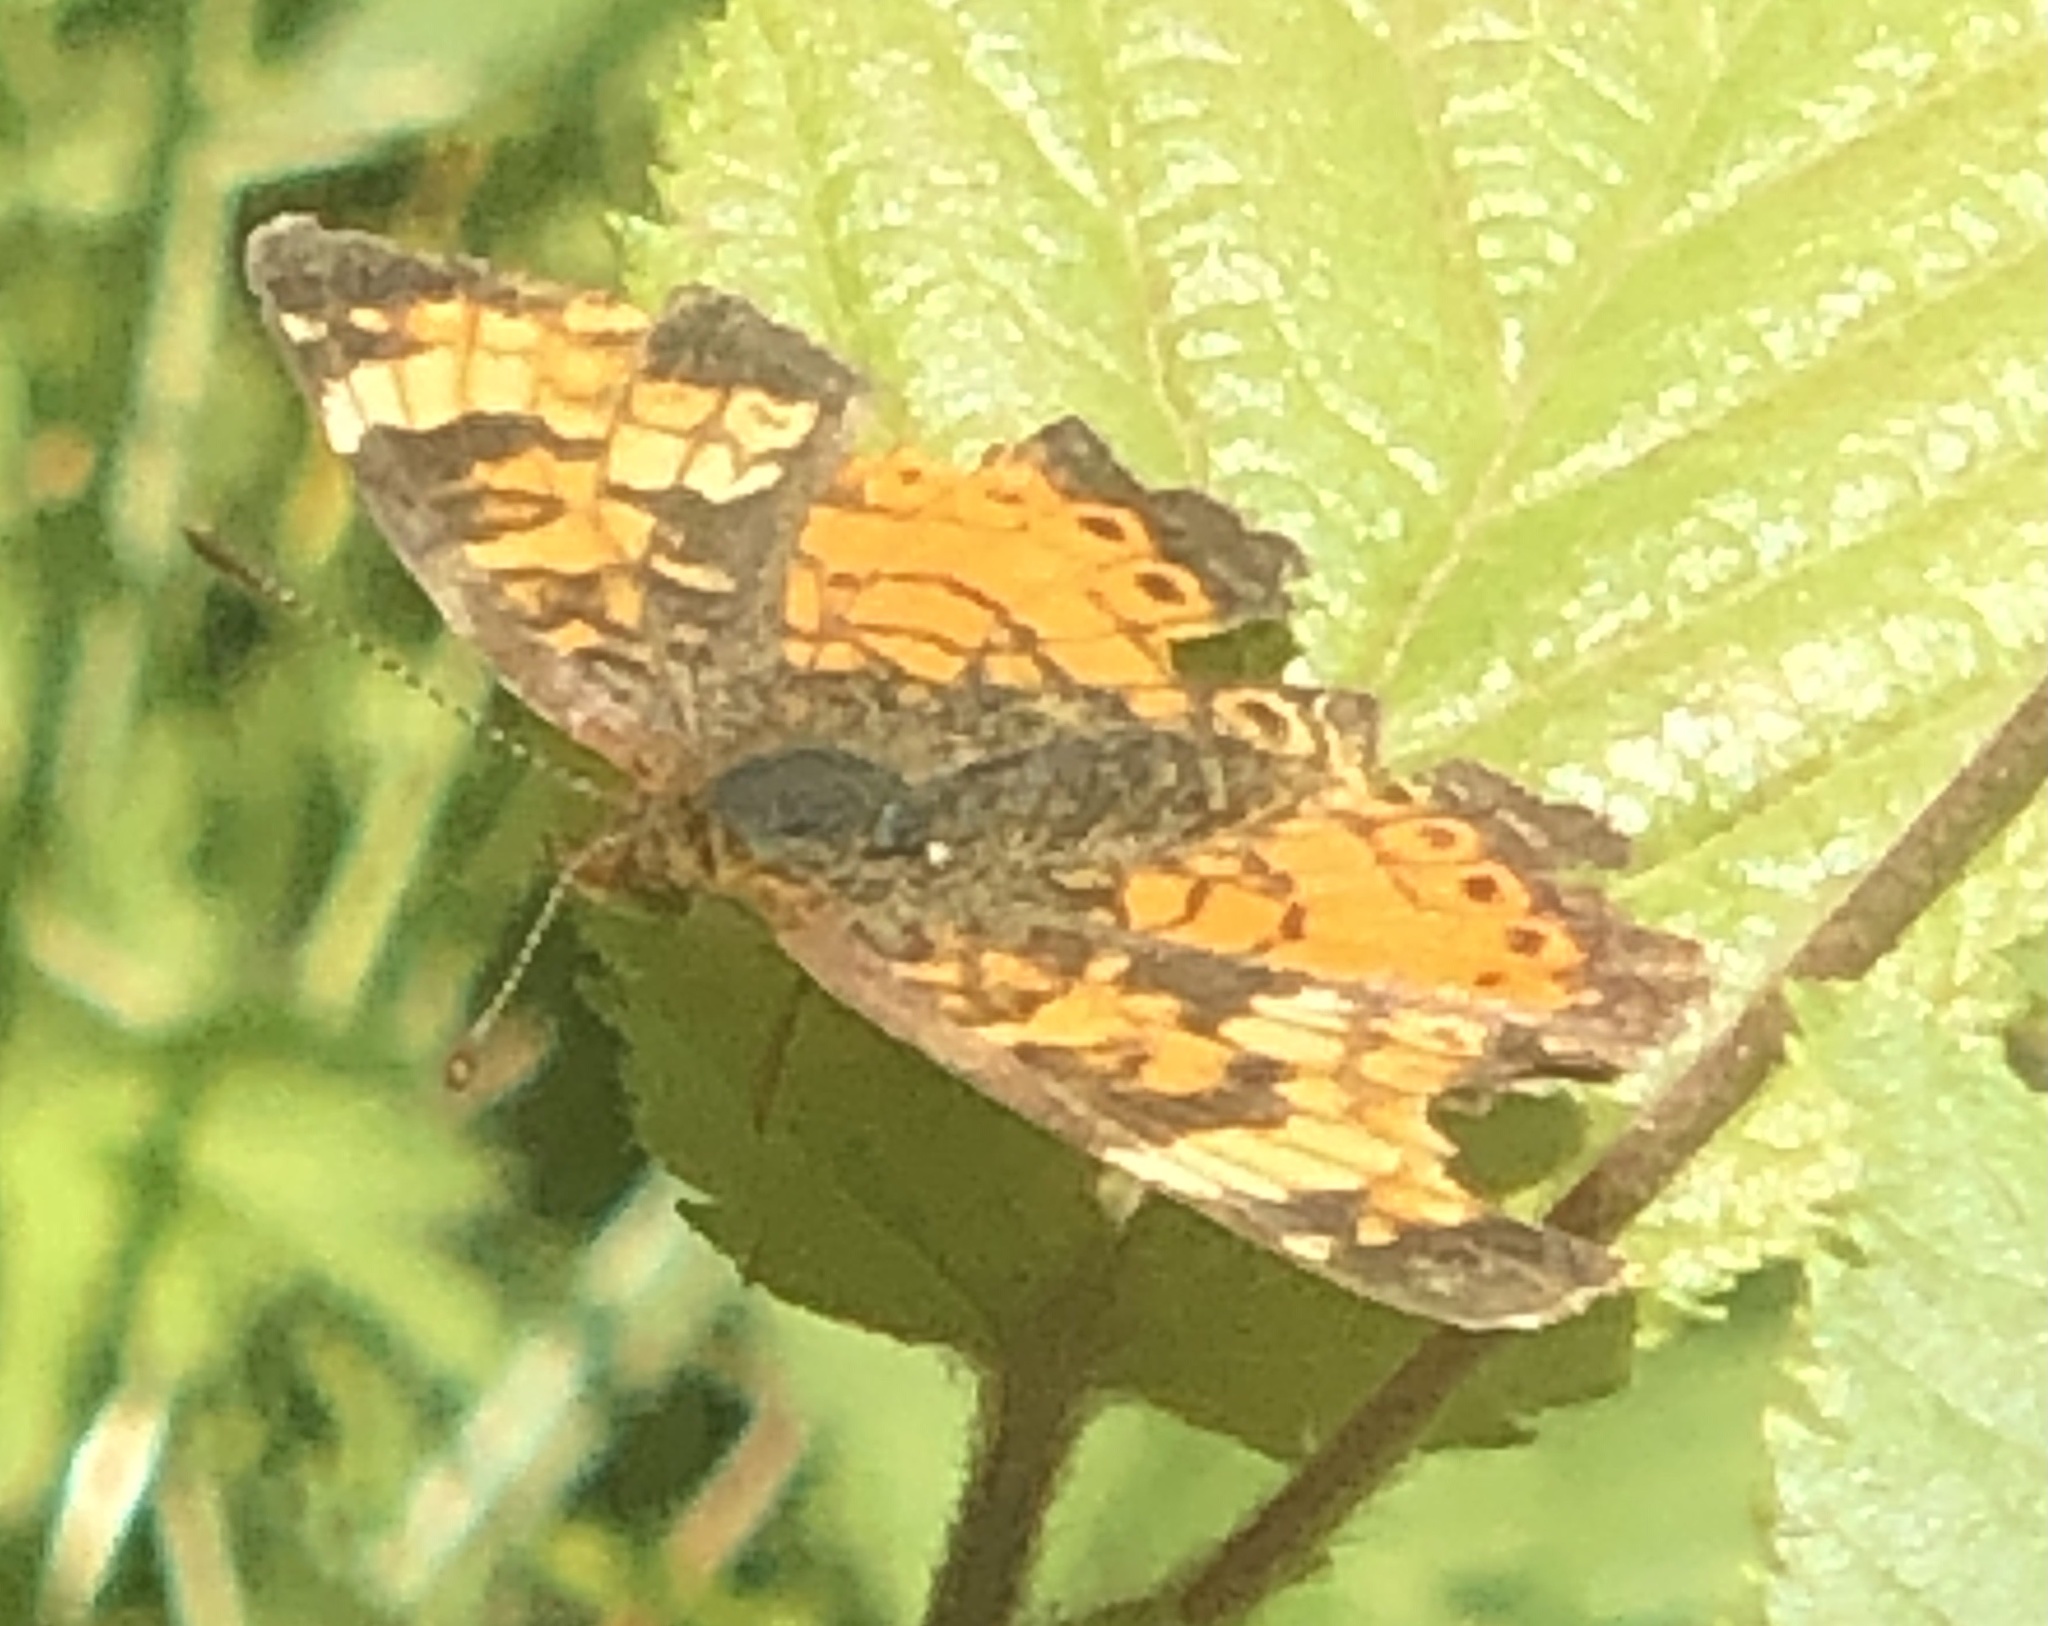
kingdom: Animalia
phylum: Arthropoda
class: Insecta
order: Lepidoptera
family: Nymphalidae
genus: Phyciodes
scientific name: Phyciodes tharos
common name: Pearl crescent
